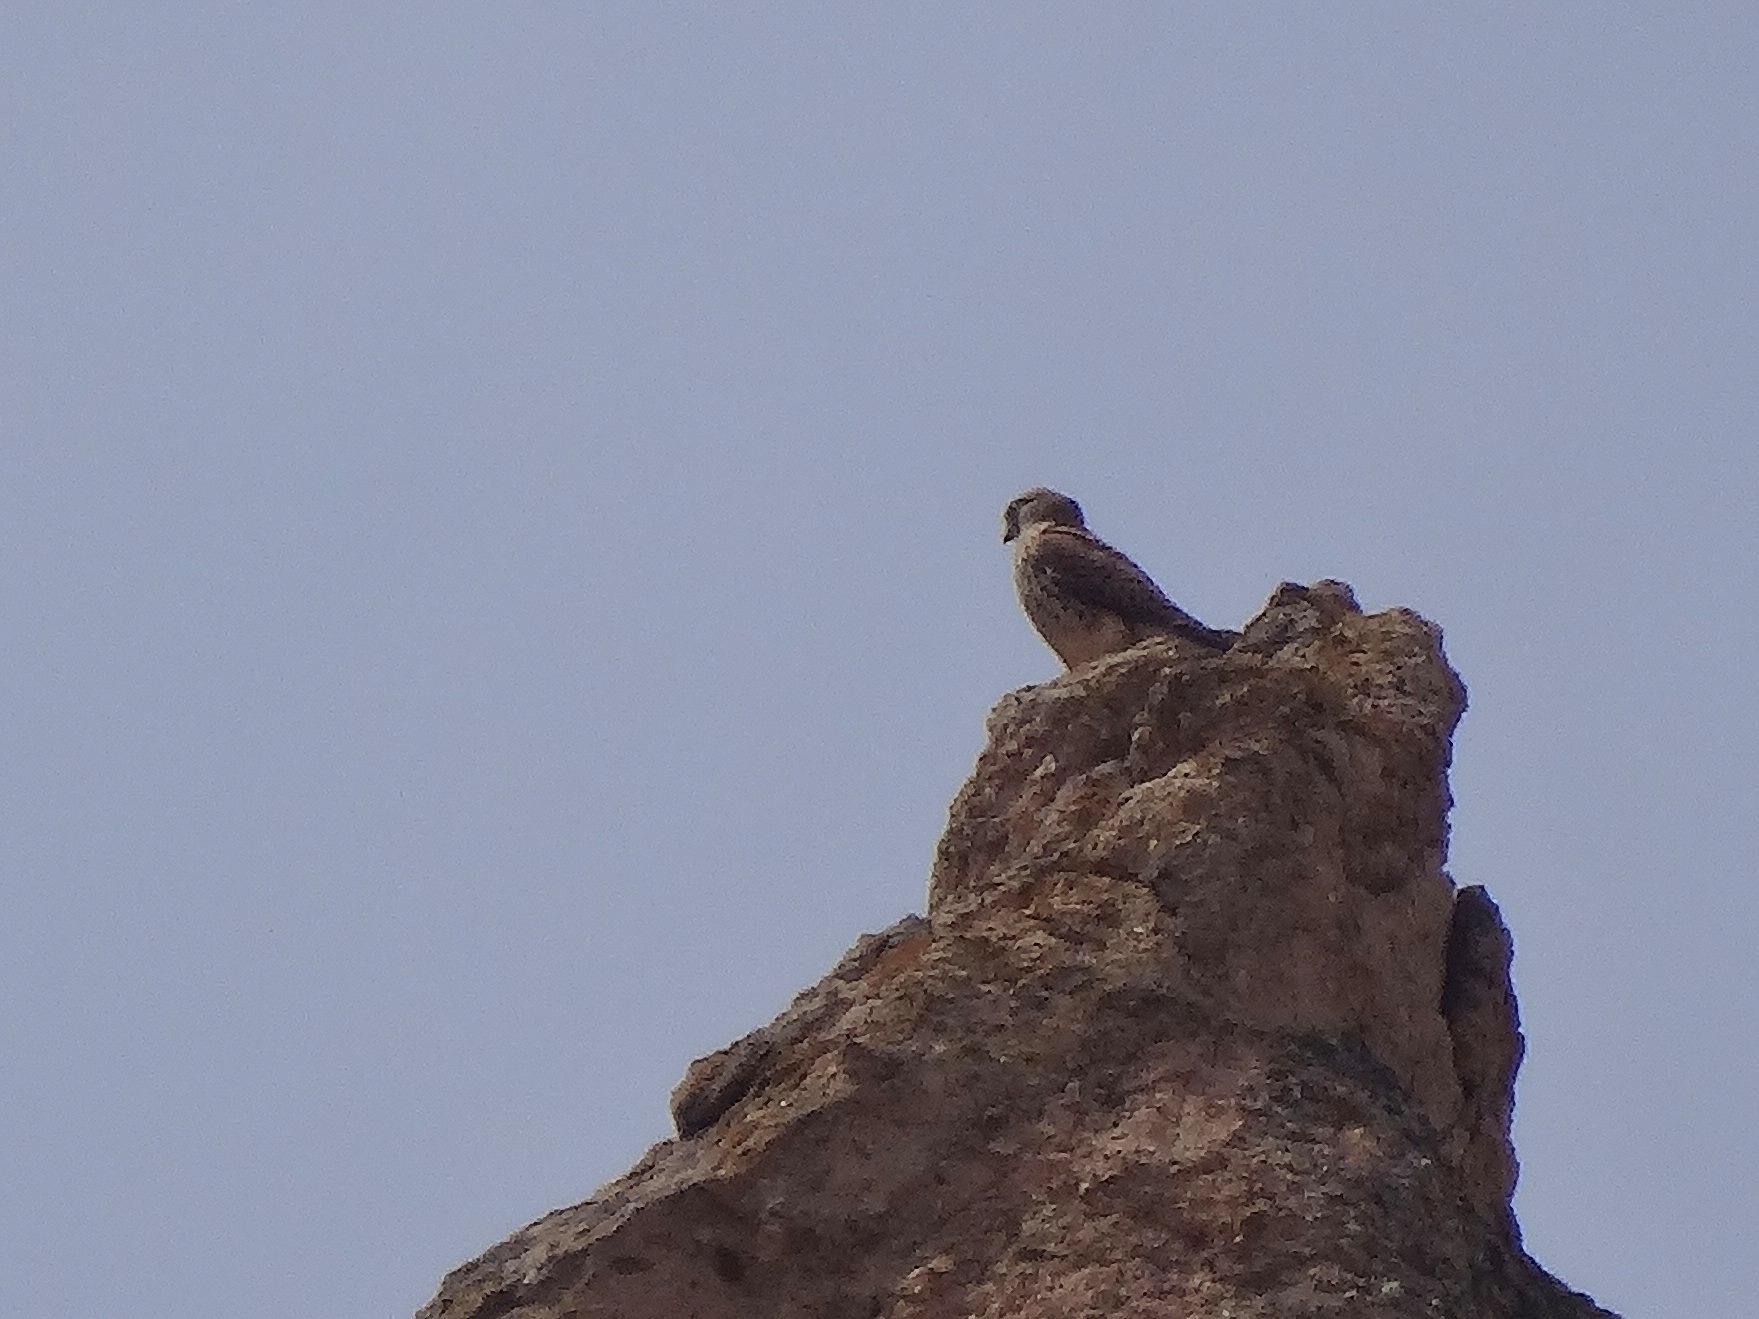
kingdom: Animalia
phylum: Chordata
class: Aves
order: Falconiformes
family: Falconidae
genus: Falco
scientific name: Falco tinnunculus
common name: Common kestrel
